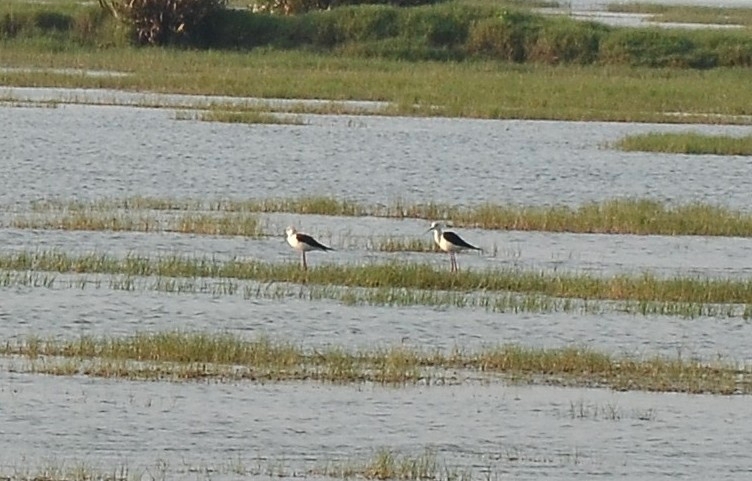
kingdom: Animalia
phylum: Chordata
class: Aves
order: Charadriiformes
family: Recurvirostridae
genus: Himantopus
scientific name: Himantopus himantopus
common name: Black-winged stilt
